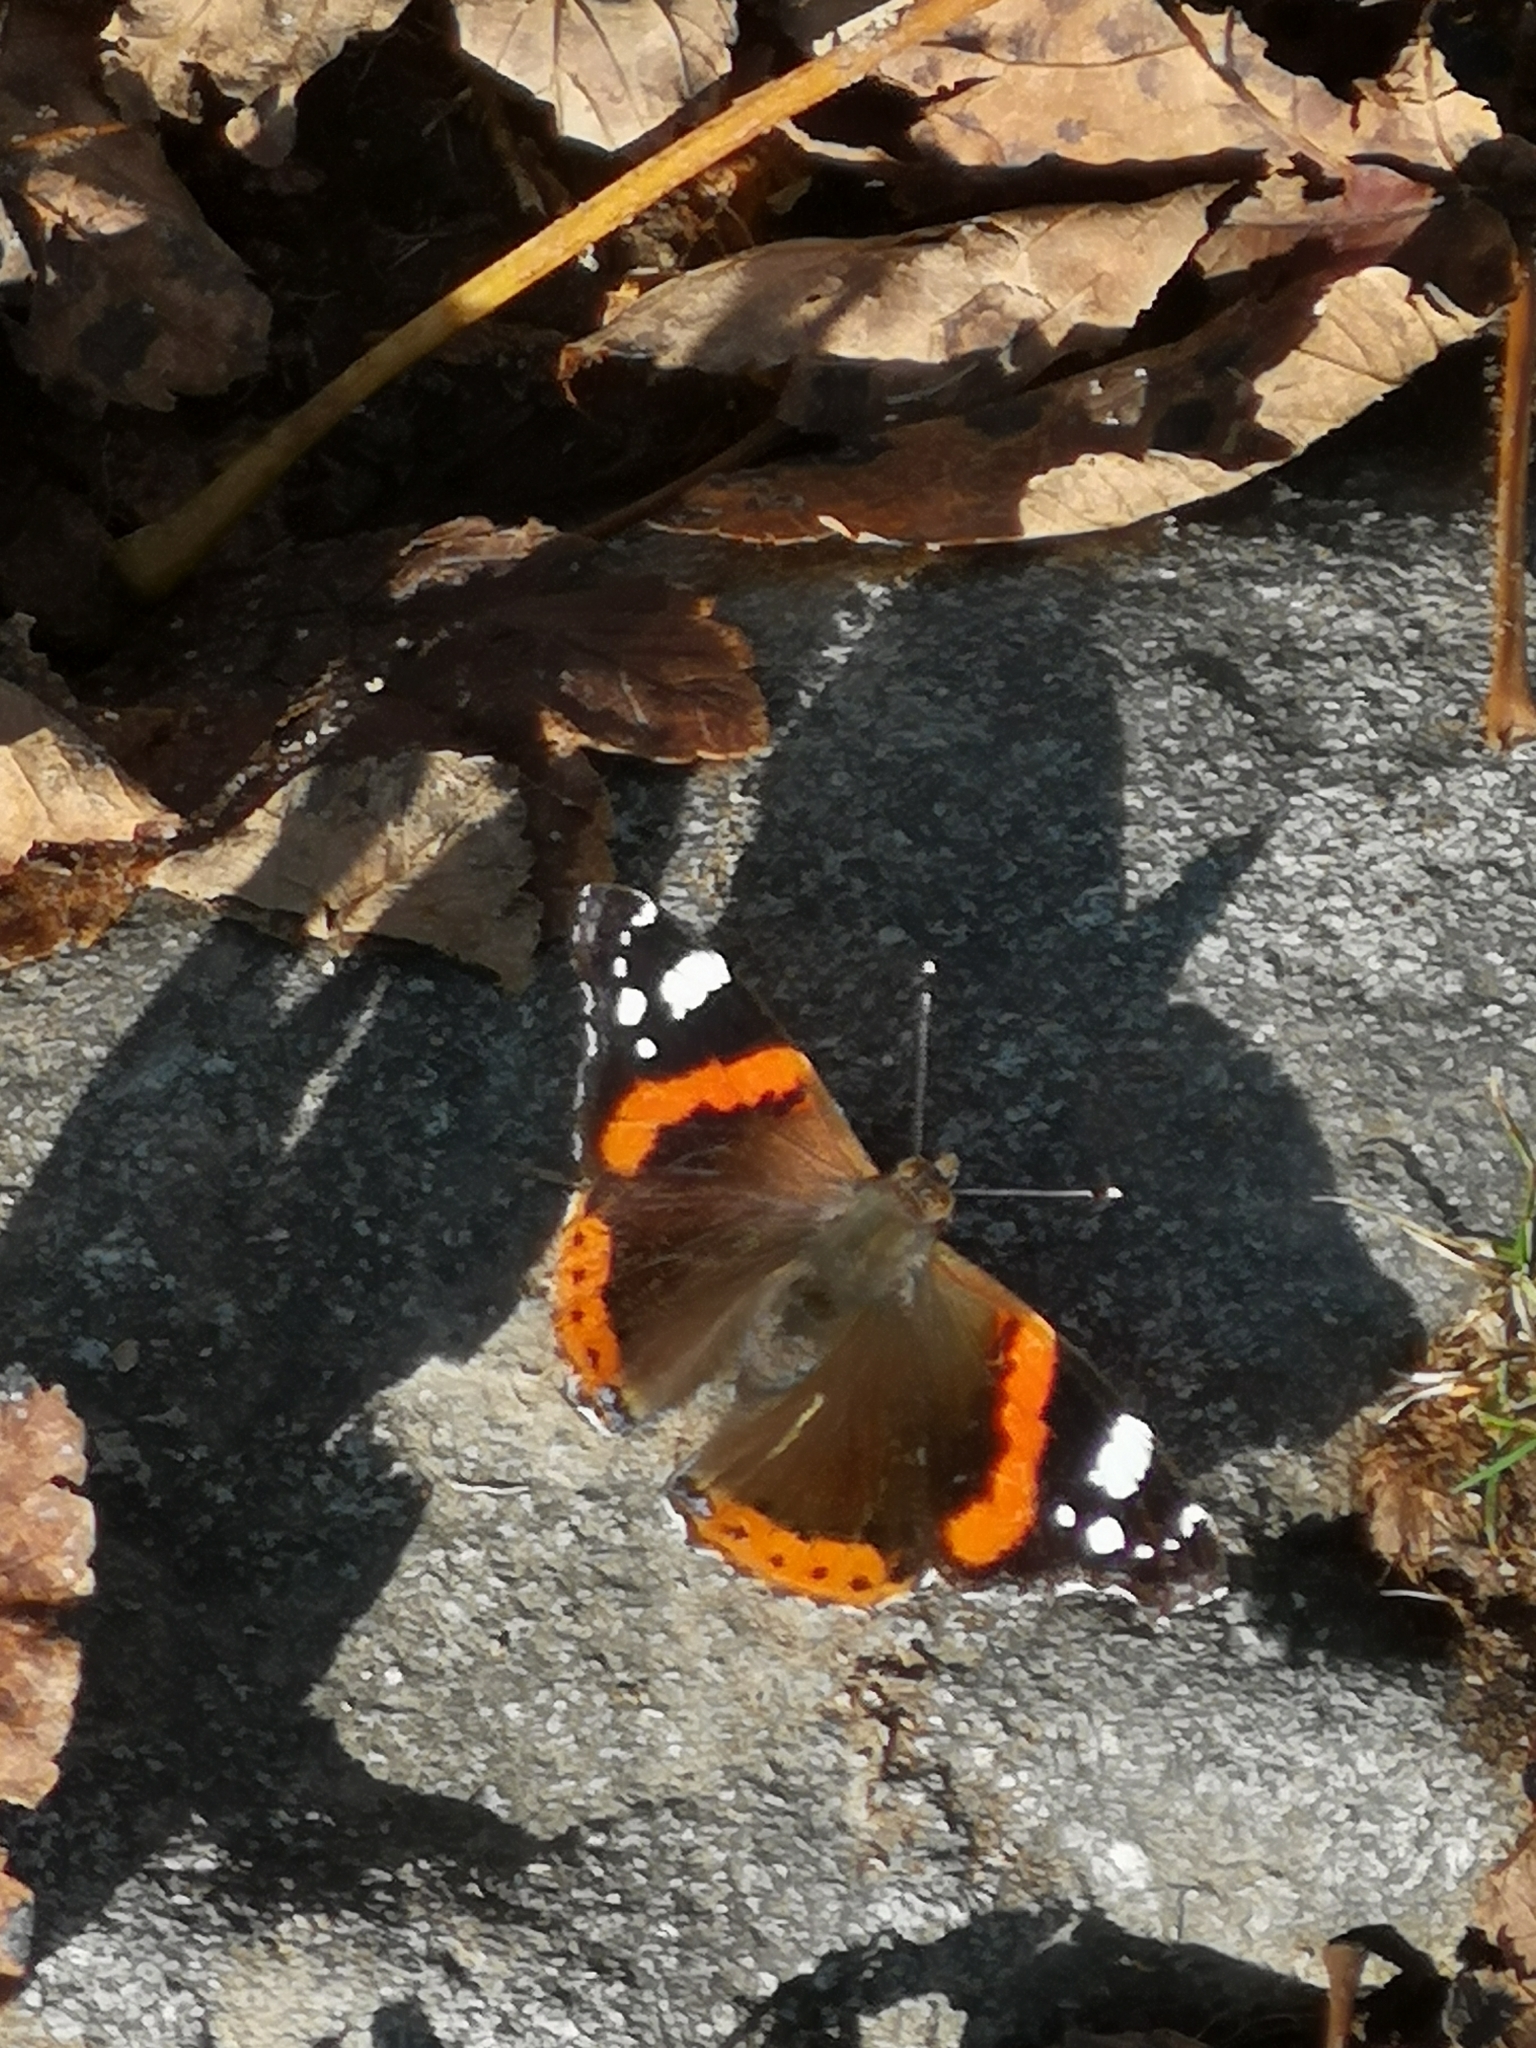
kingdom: Animalia
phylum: Arthropoda
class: Insecta
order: Lepidoptera
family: Nymphalidae
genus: Vanessa
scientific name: Vanessa atalanta
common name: Red admiral
